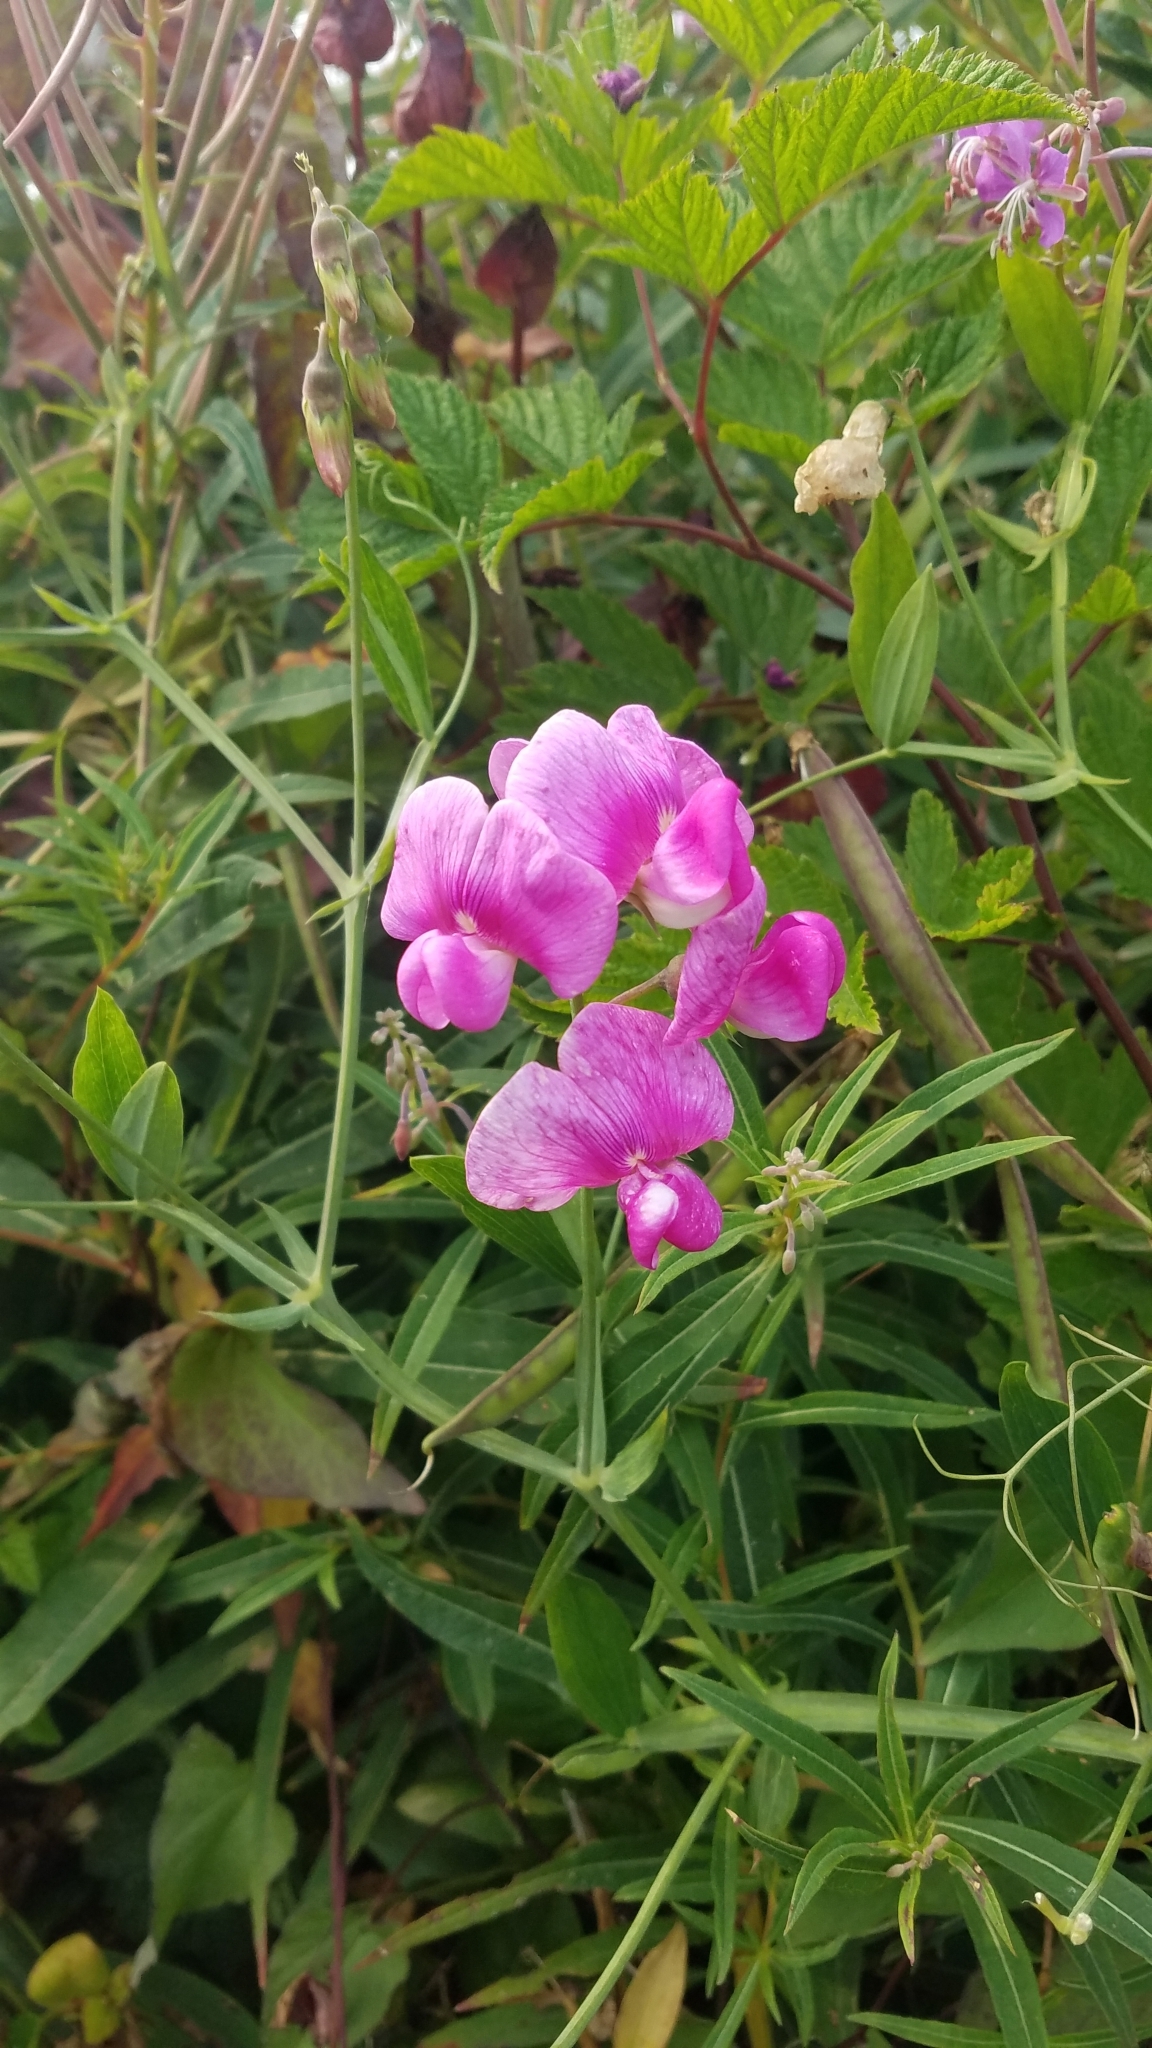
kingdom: Plantae
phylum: Tracheophyta
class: Magnoliopsida
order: Fabales
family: Fabaceae
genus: Lathyrus
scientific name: Lathyrus latifolius
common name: Perennial pea
